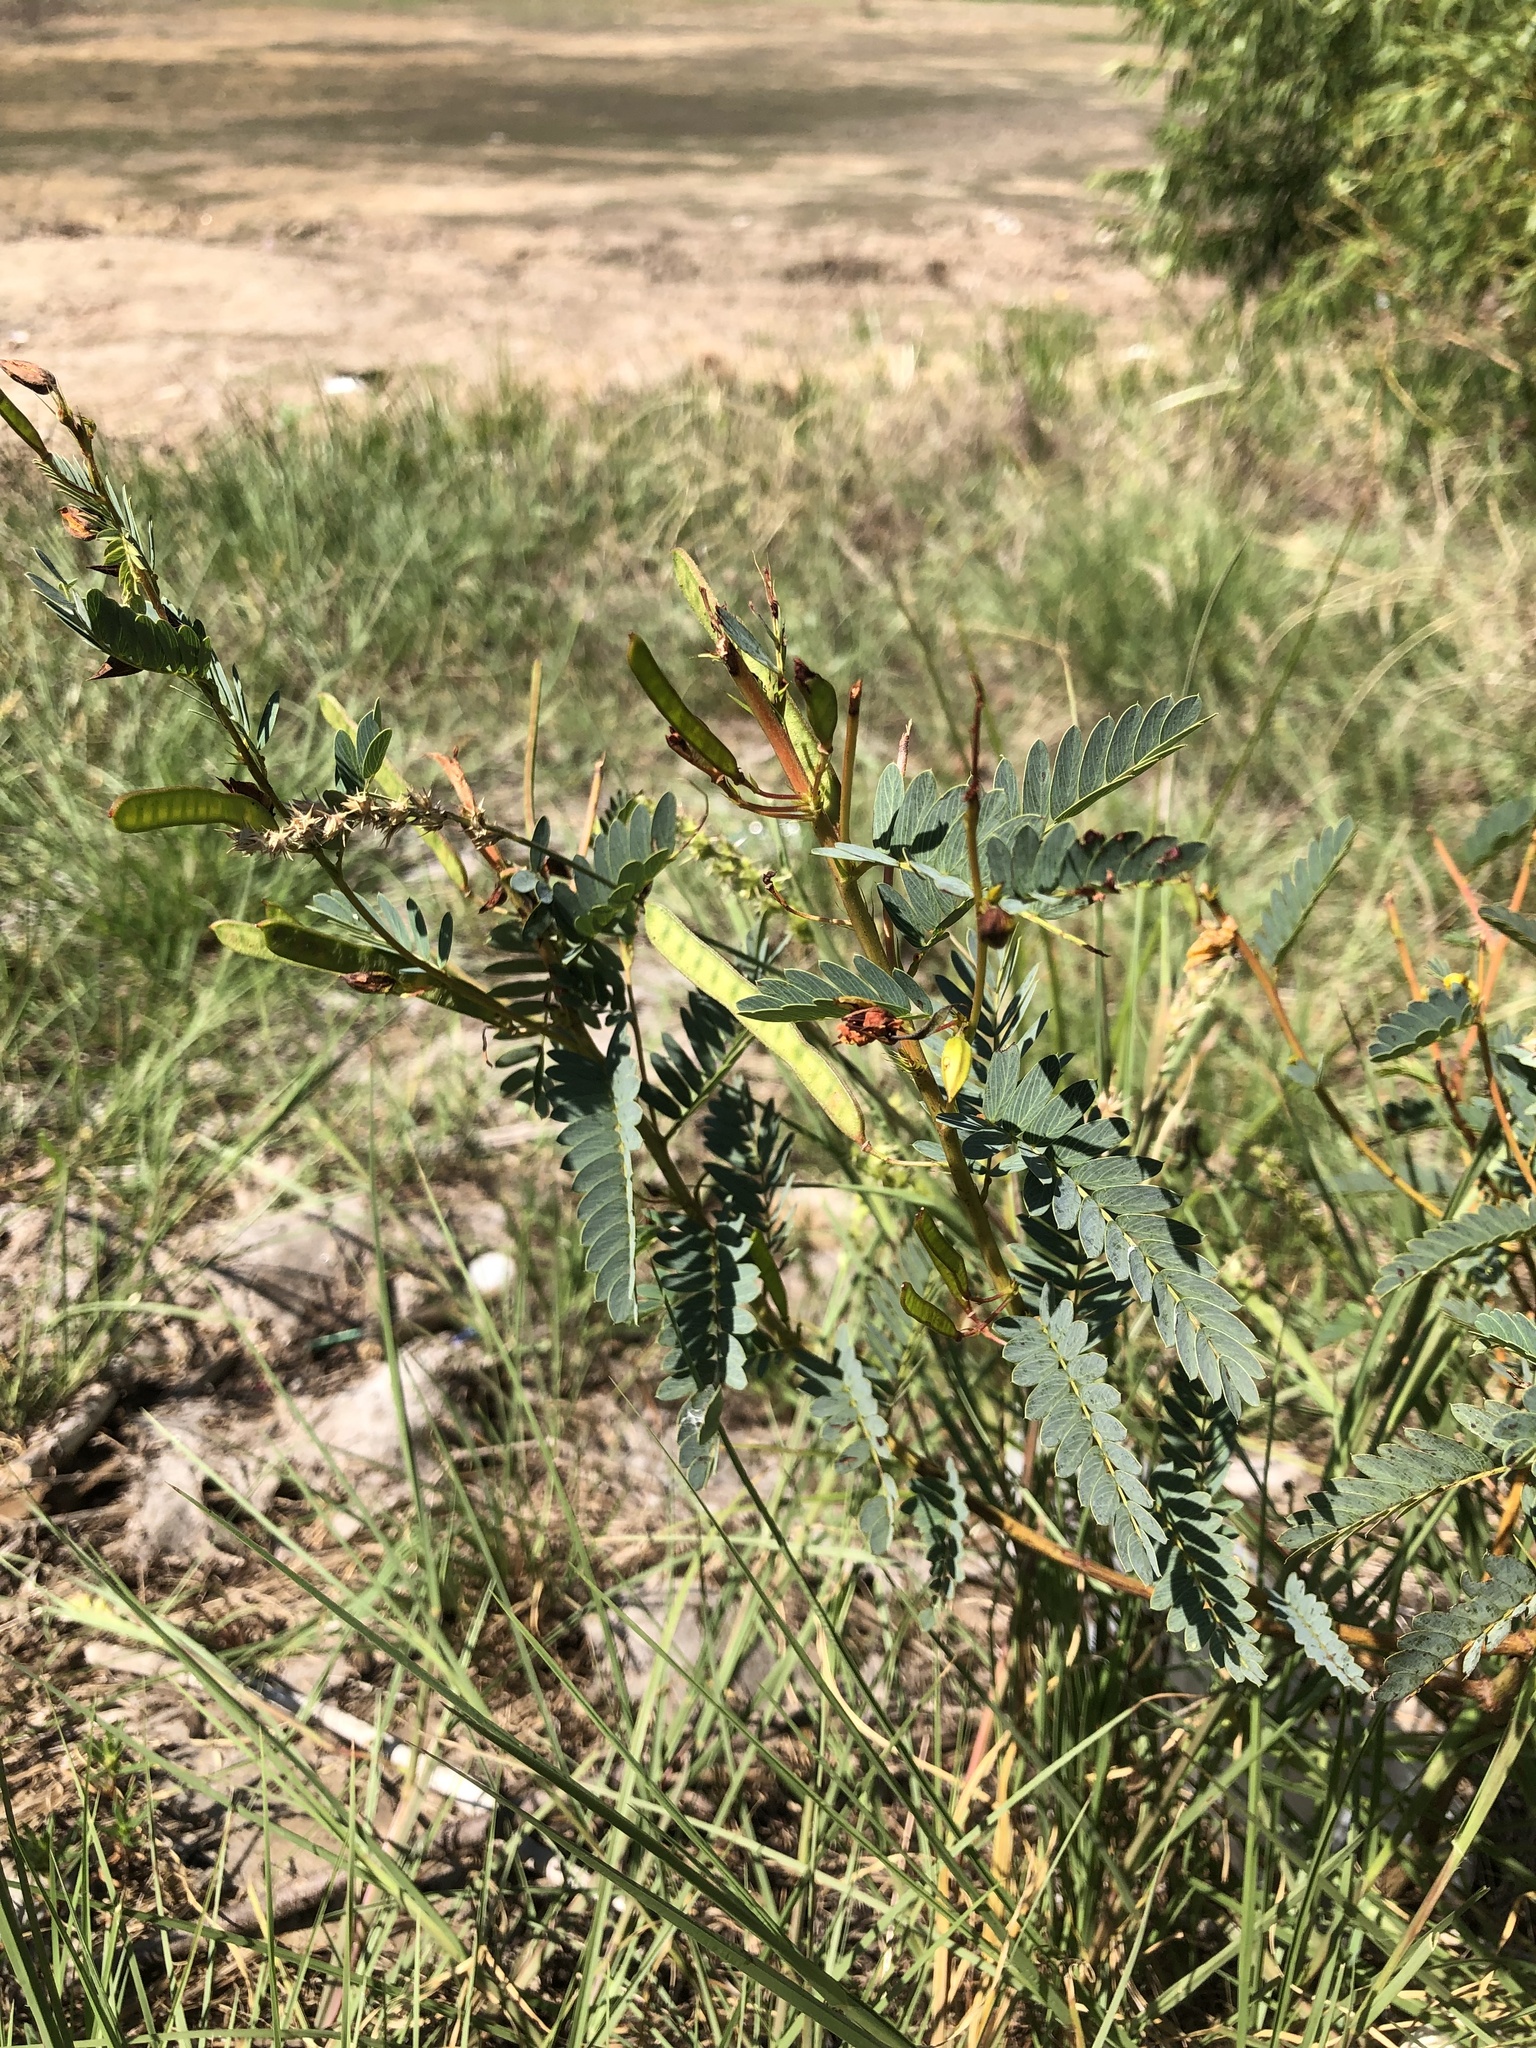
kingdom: Plantae
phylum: Tracheophyta
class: Magnoliopsida
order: Fabales
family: Fabaceae
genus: Chamaecrista
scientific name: Chamaecrista fasciculata
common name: Golden cassia
